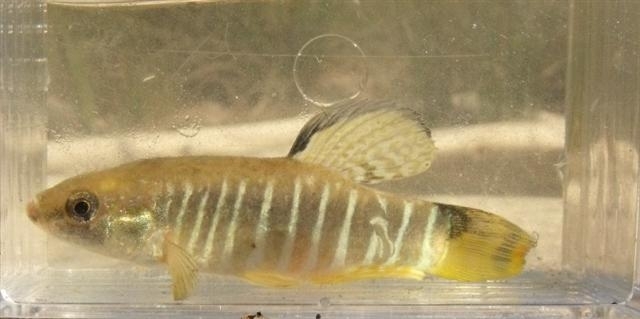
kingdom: Animalia
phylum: Chordata
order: Cyprinodontiformes
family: Cyprinodontidae
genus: Aphanius
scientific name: Aphanius fasciatus
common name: Mediterranean banded killifish
